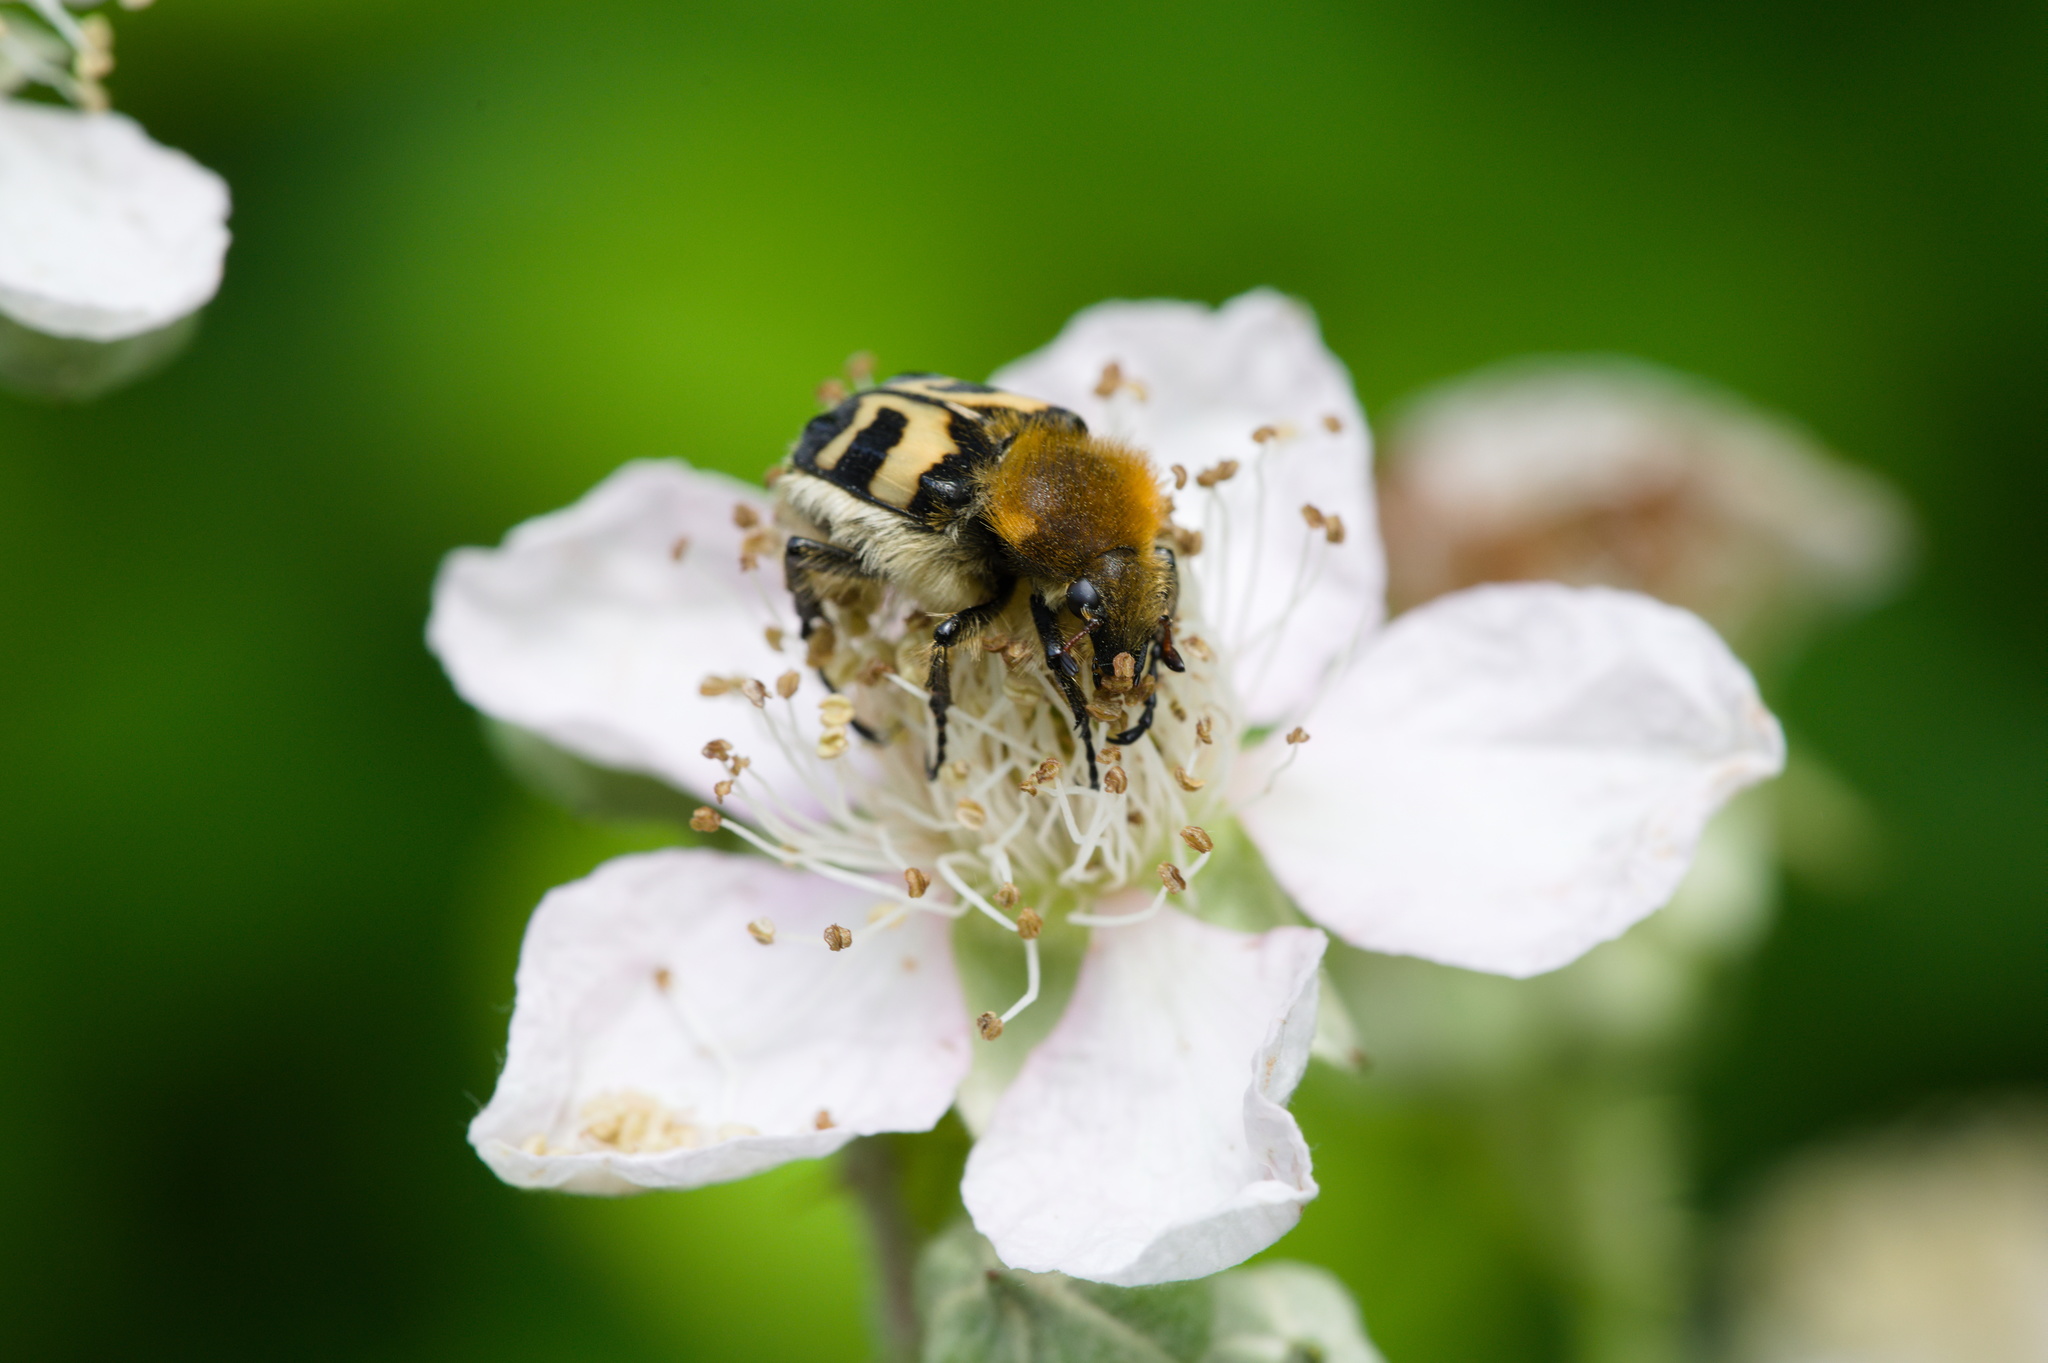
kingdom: Animalia
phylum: Arthropoda
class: Insecta
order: Coleoptera
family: Scarabaeidae
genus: Trichius
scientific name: Trichius fasciatus
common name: Bee beetle
